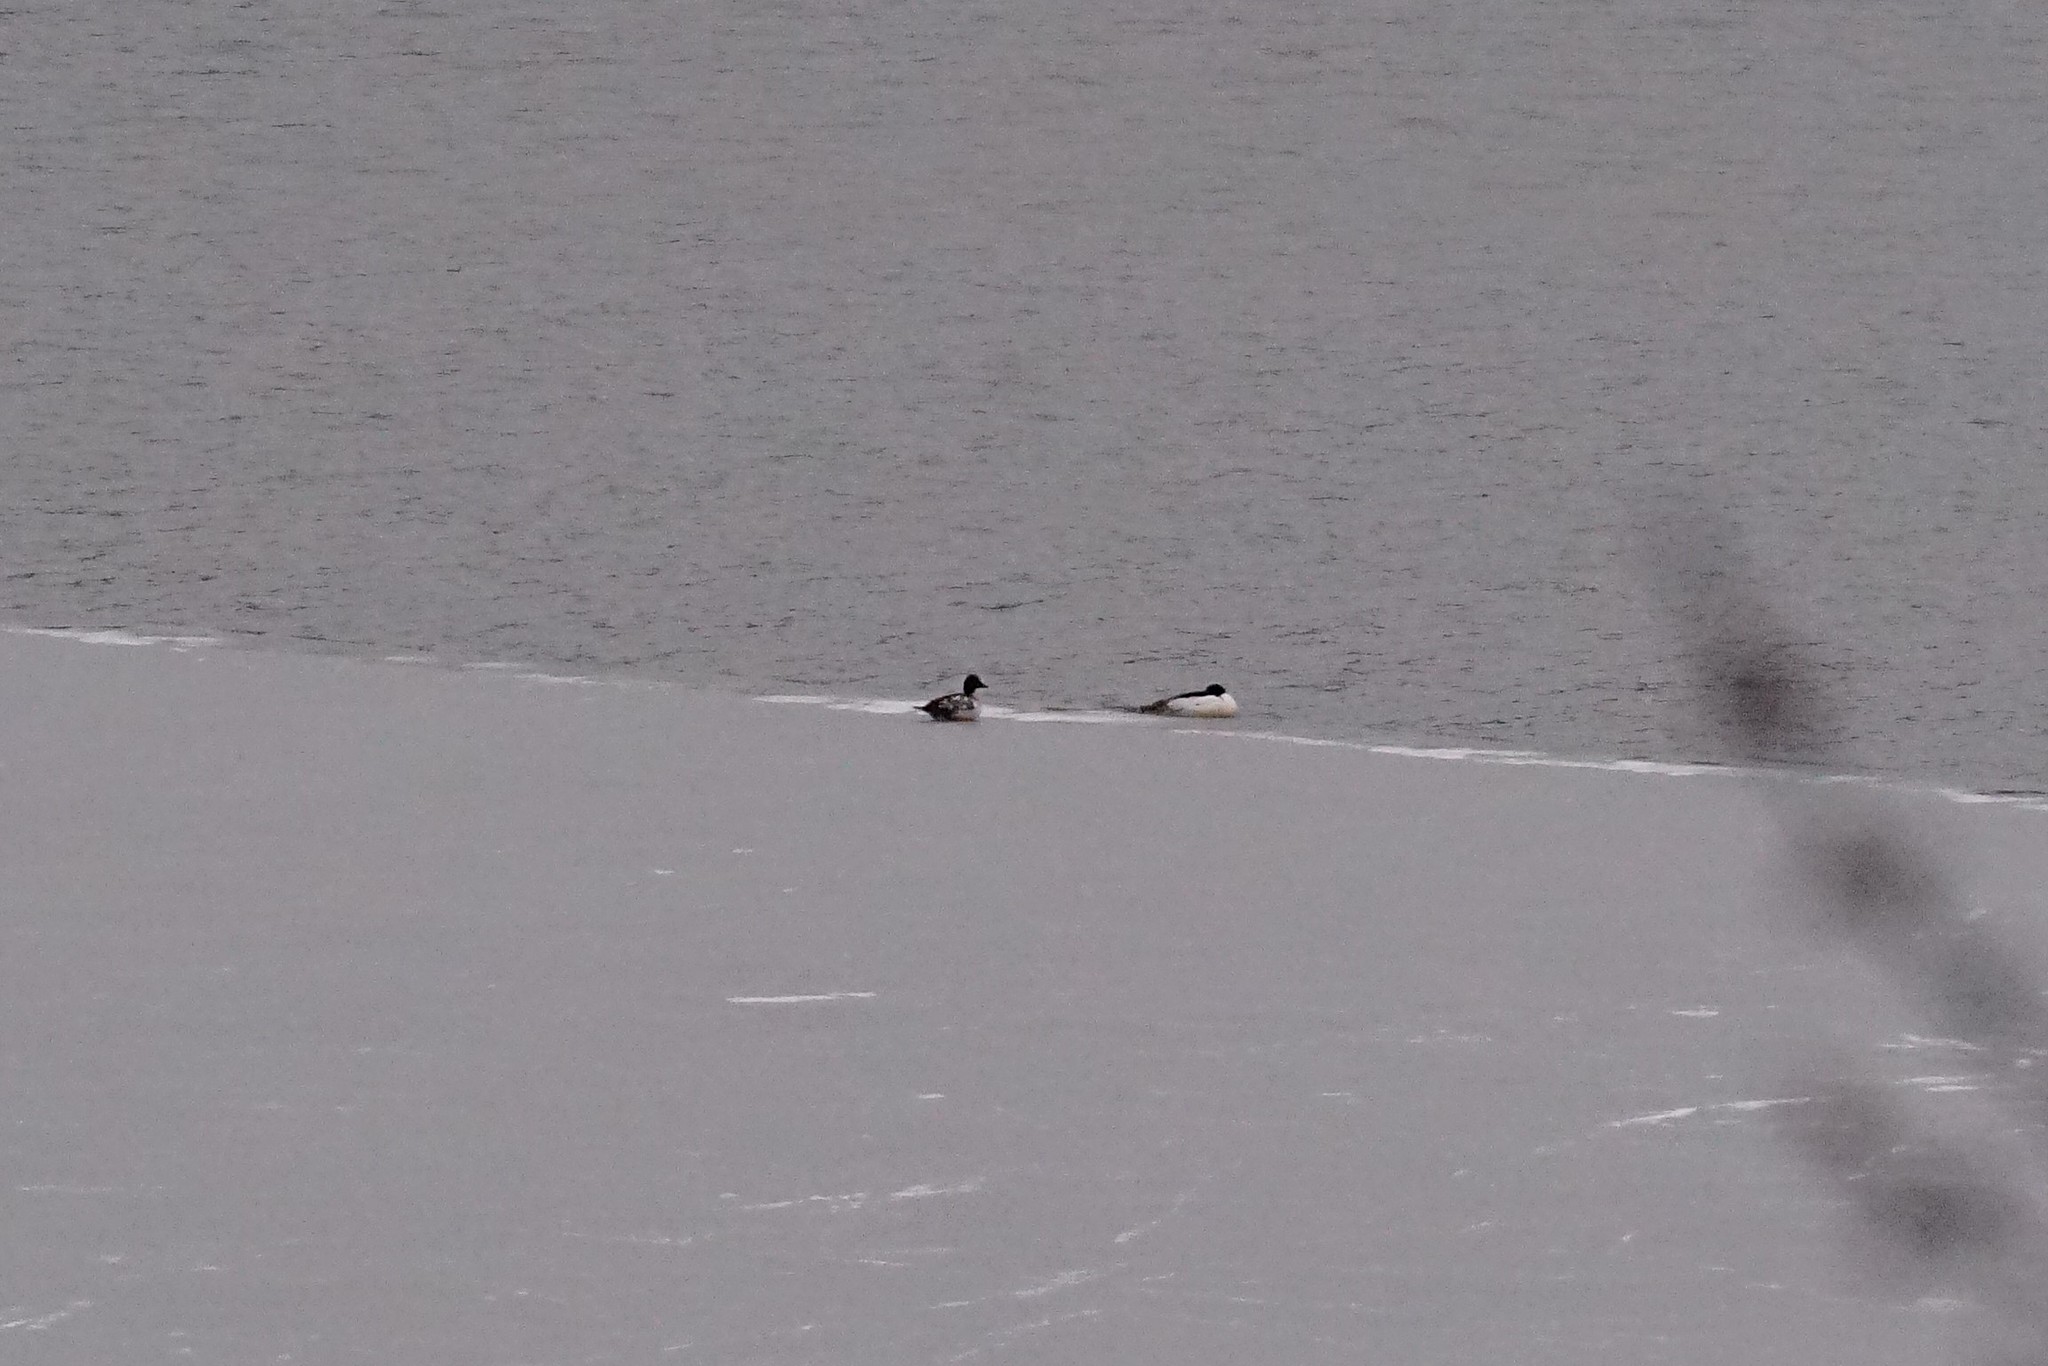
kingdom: Animalia
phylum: Chordata
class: Aves
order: Anseriformes
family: Anatidae
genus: Mergus
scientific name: Mergus merganser
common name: Common merganser
